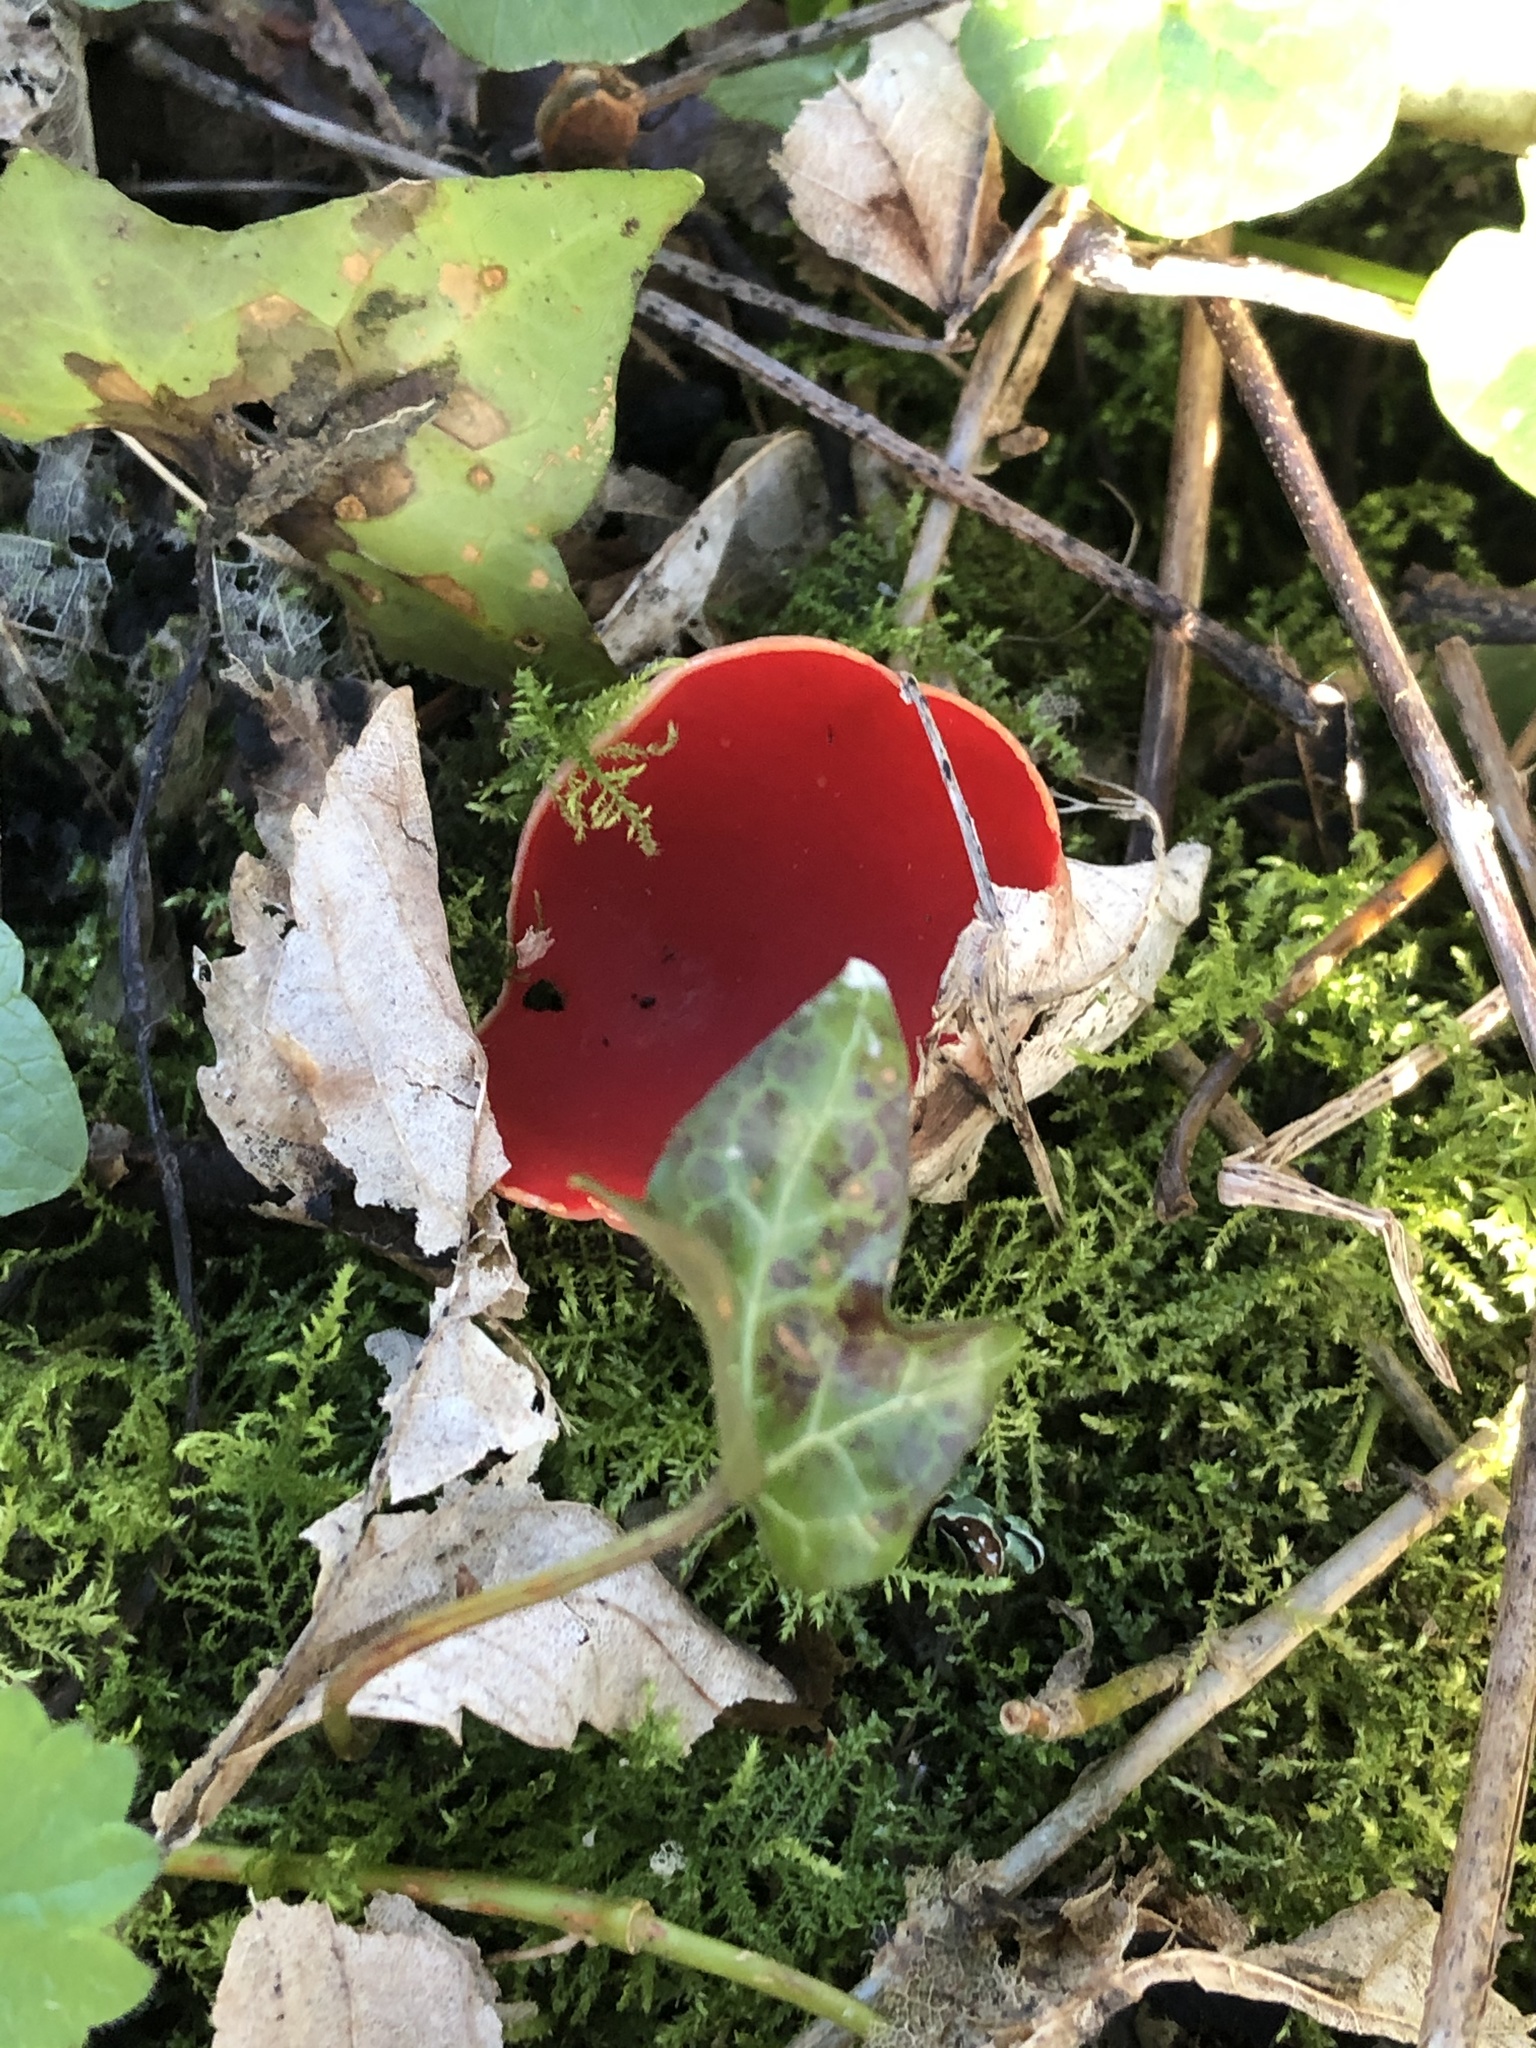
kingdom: Fungi
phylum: Ascomycota
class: Pezizomycetes
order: Pezizales
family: Sarcoscyphaceae
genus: Sarcoscypha
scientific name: Sarcoscypha
